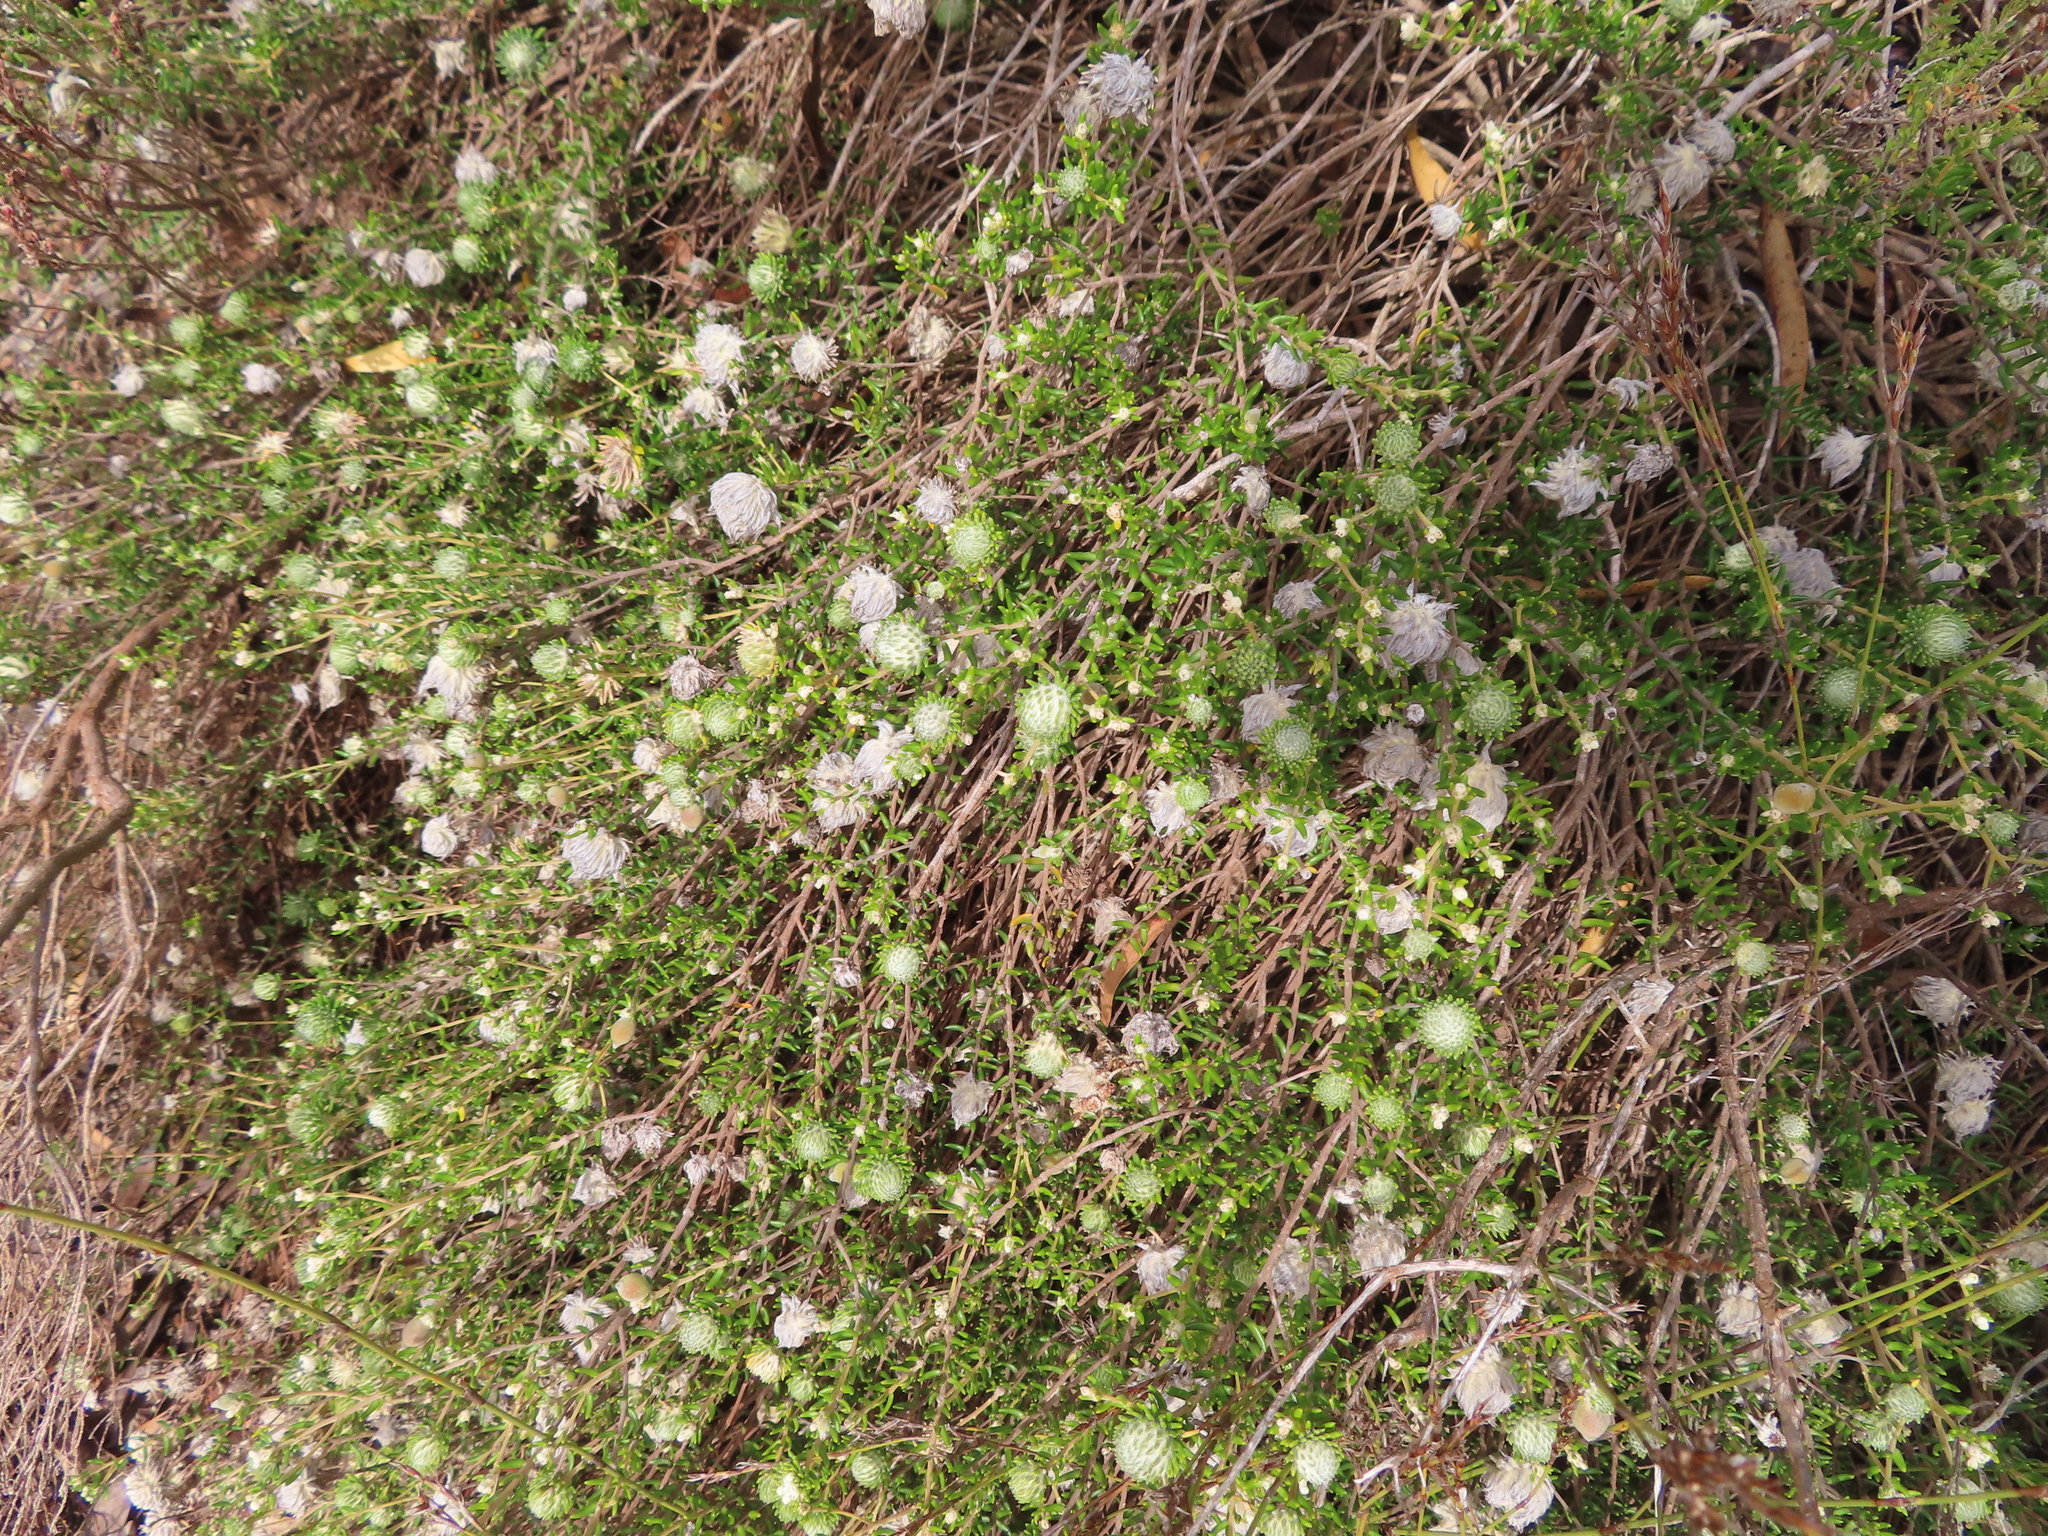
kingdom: Plantae
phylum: Tracheophyta
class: Magnoliopsida
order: Rosales
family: Rhamnaceae
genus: Trichocephalus
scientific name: Trichocephalus stipularis
